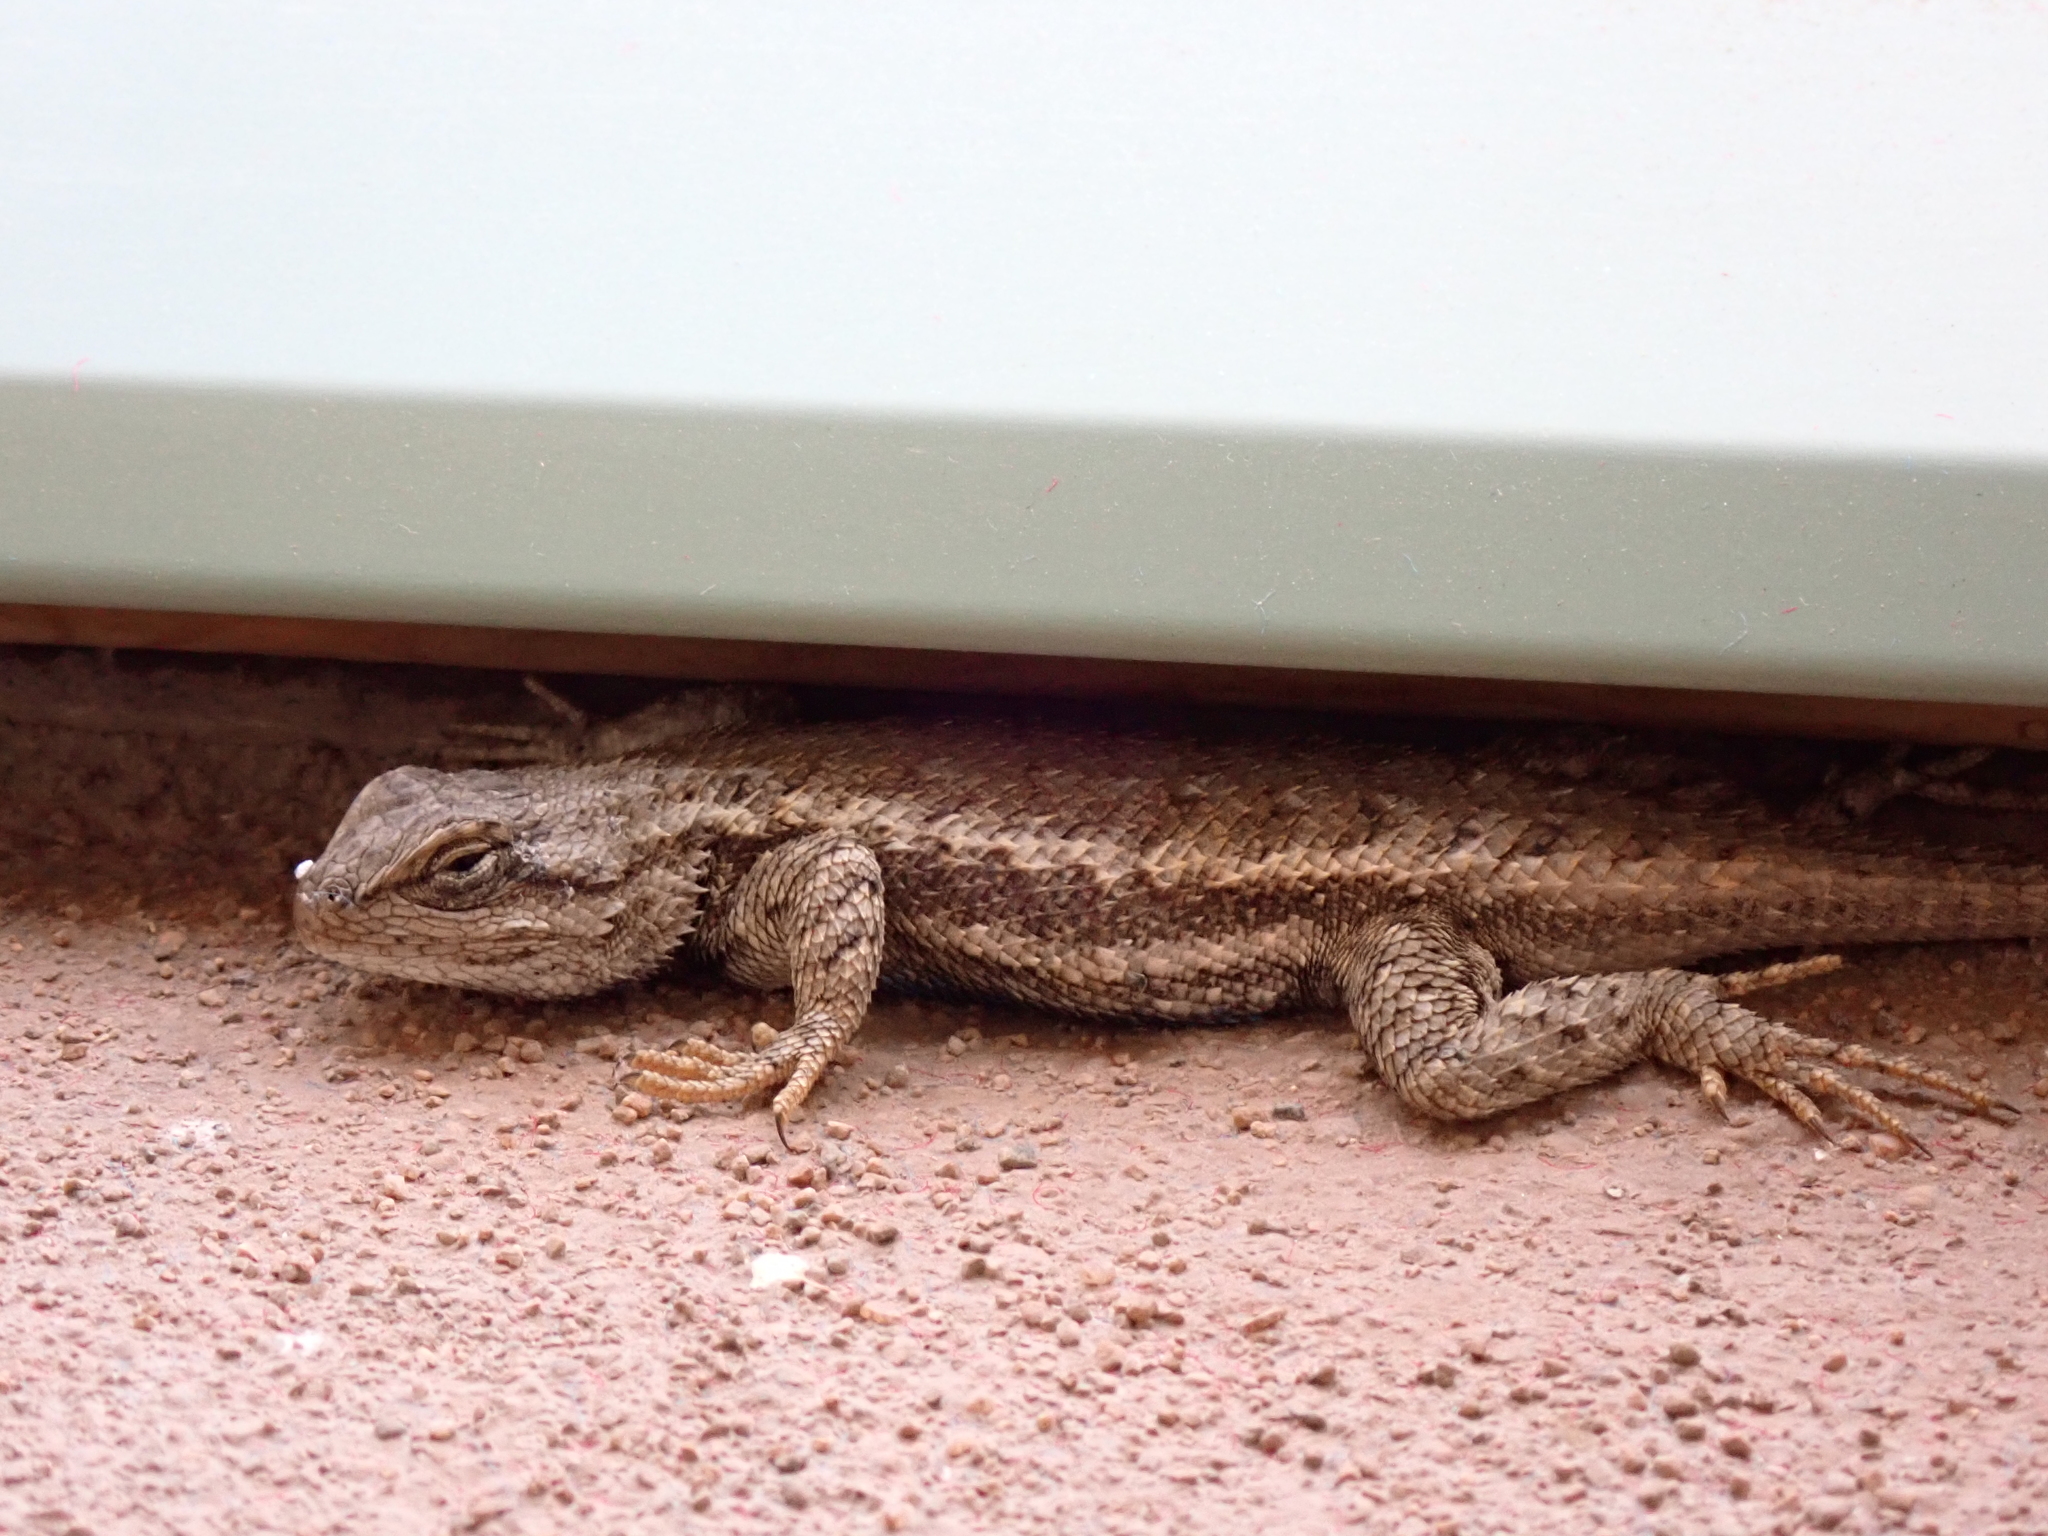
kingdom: Animalia
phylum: Chordata
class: Squamata
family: Phrynosomatidae
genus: Sceloporus
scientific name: Sceloporus
